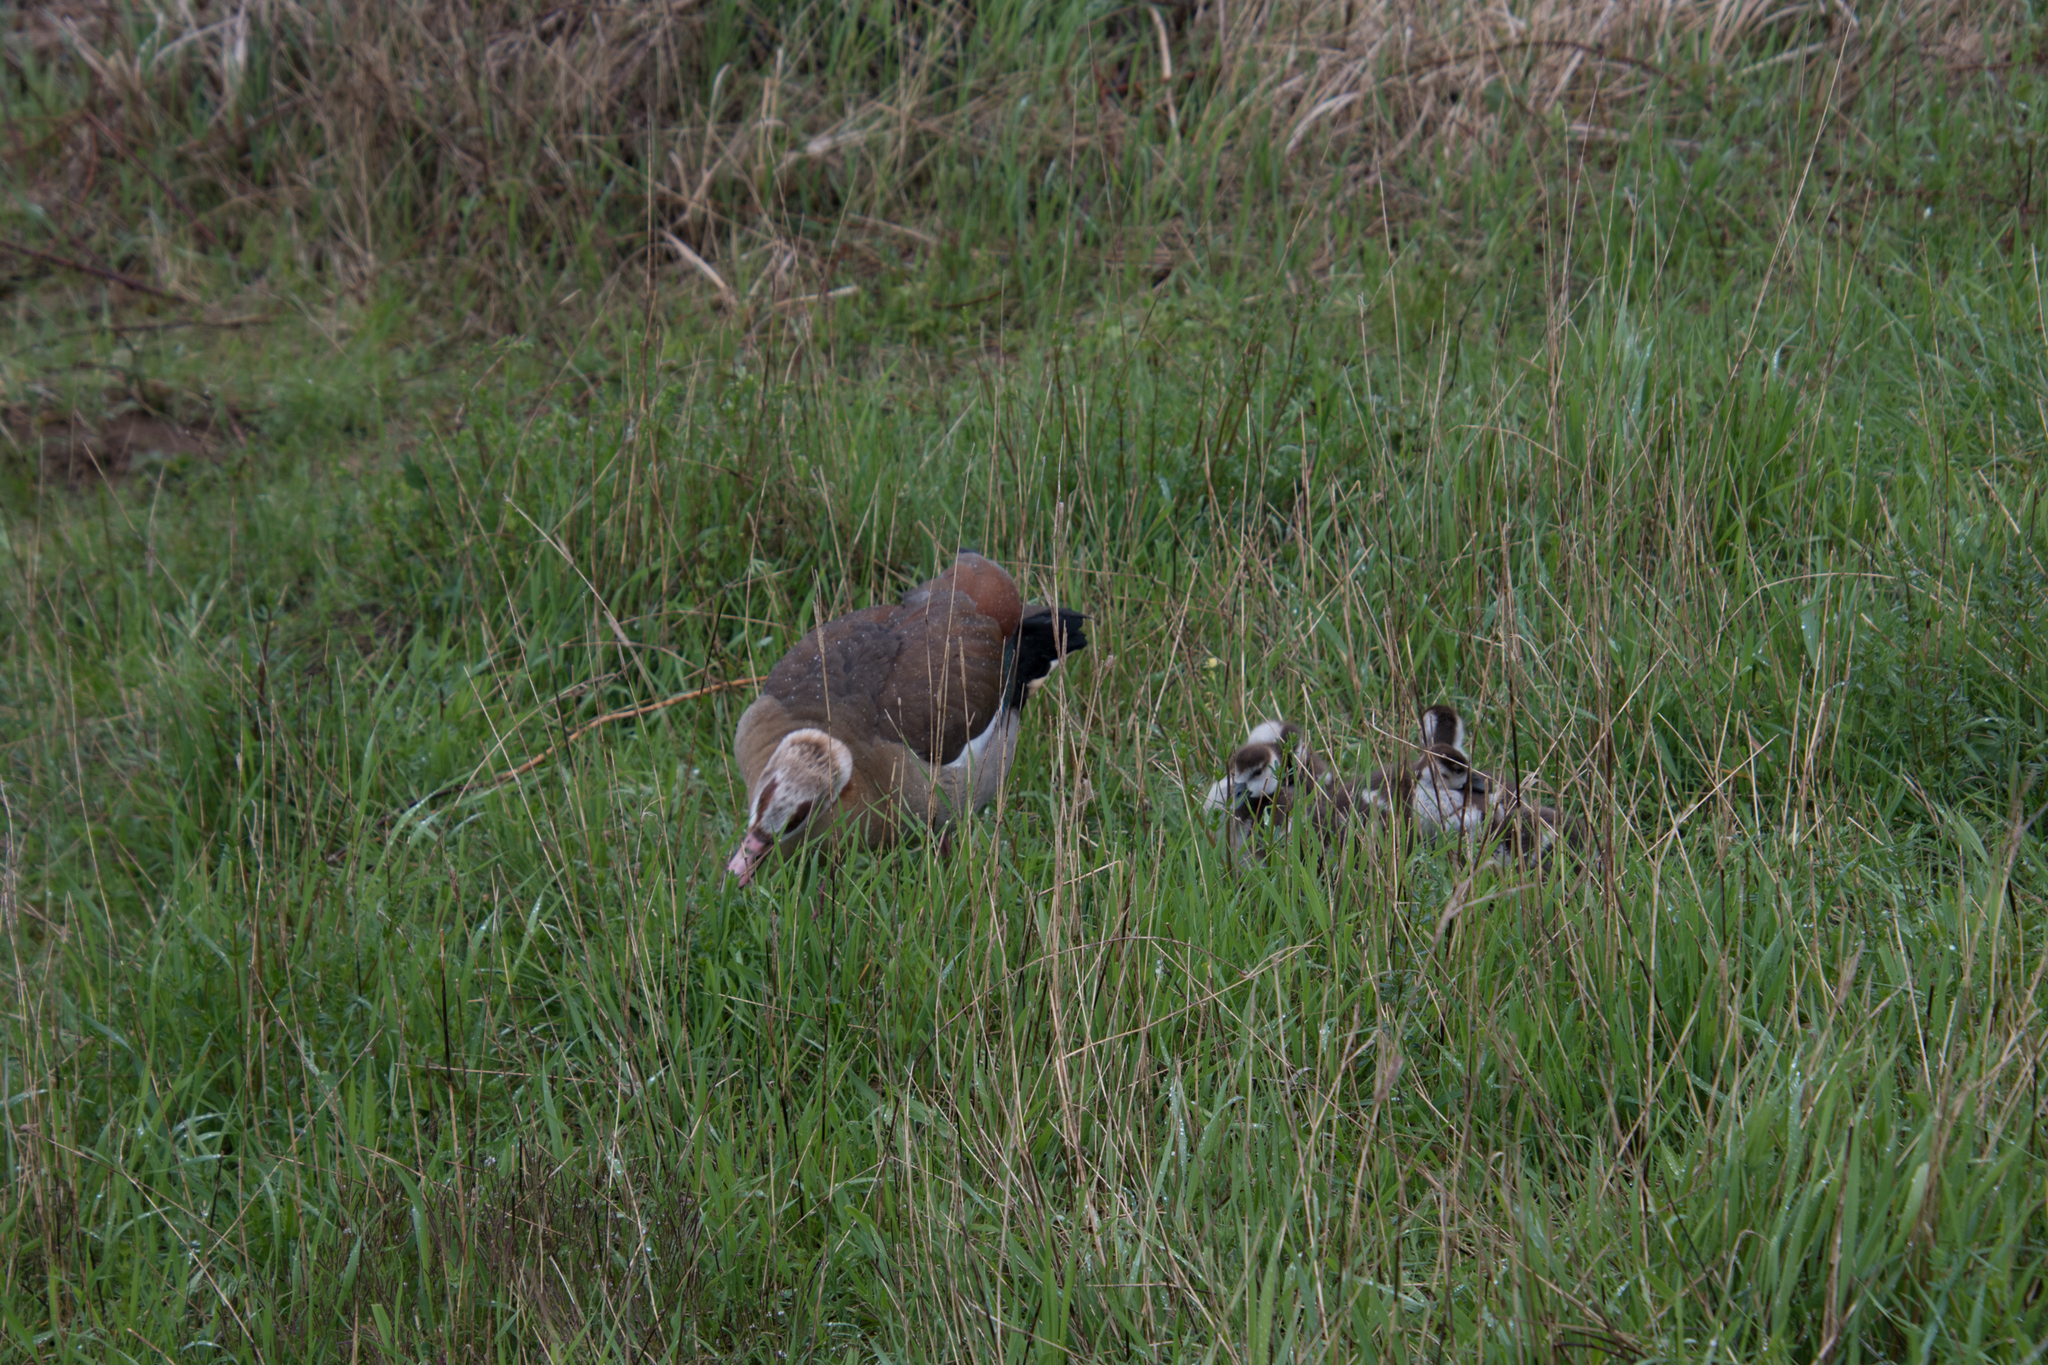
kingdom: Animalia
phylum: Chordata
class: Aves
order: Anseriformes
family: Anatidae
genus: Alopochen
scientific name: Alopochen aegyptiaca
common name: Egyptian goose
